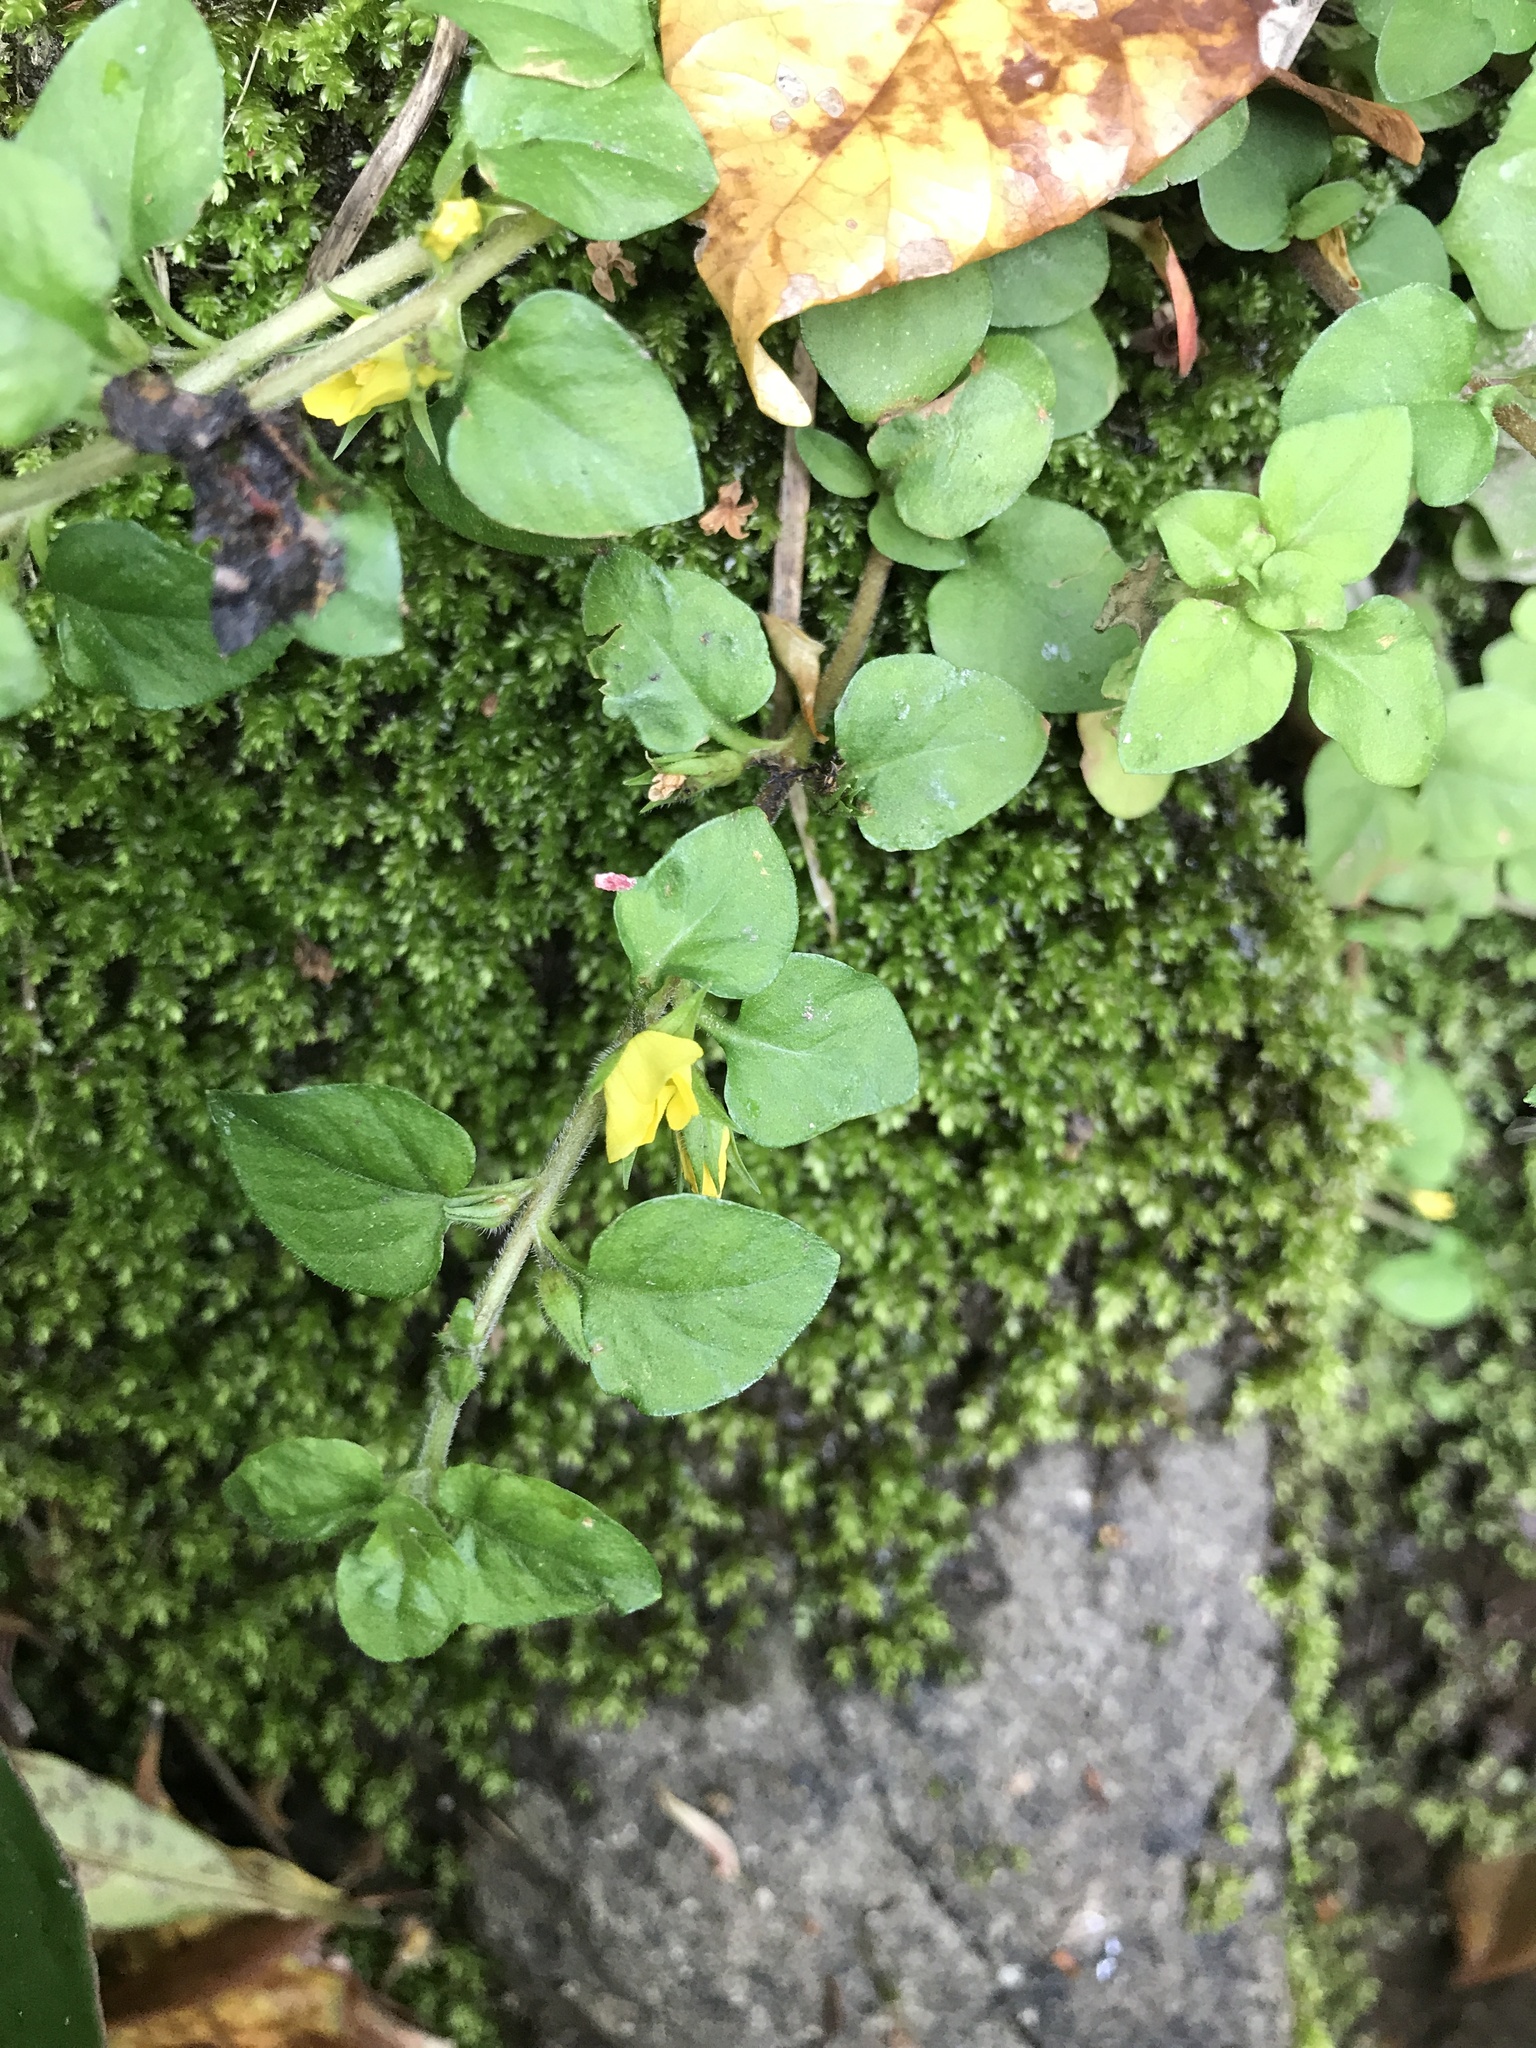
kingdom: Plantae
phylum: Tracheophyta
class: Magnoliopsida
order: Ericales
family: Primulaceae
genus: Lysimachia
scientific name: Lysimachia japonica
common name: Japanese yellow loosestrife
